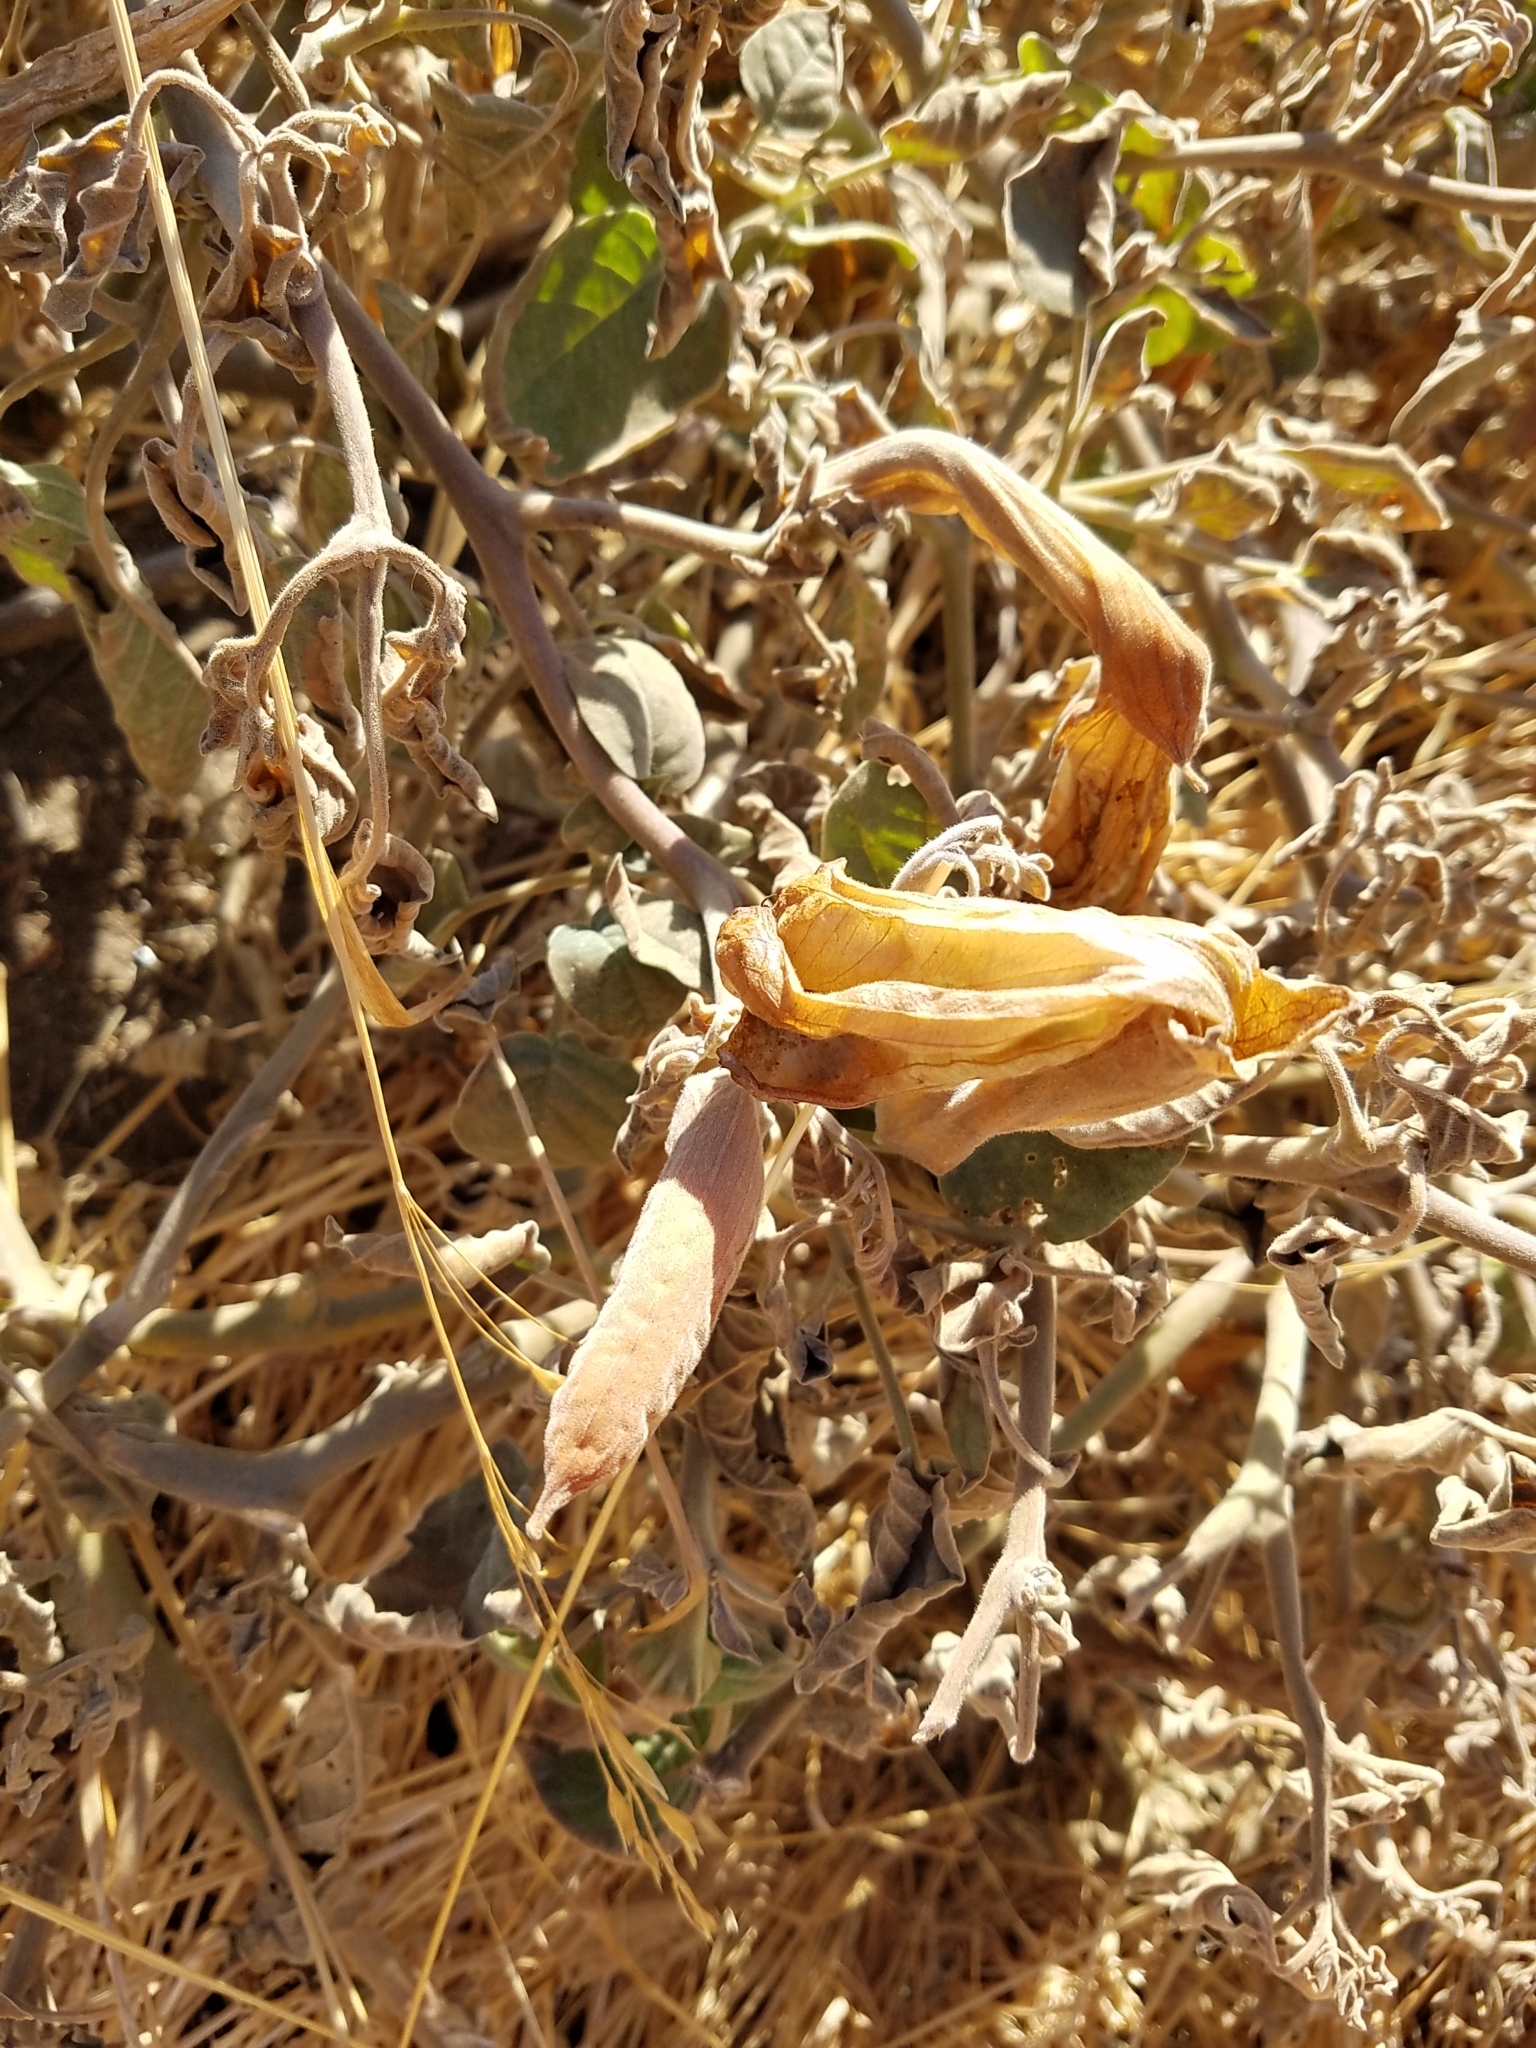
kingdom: Plantae
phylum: Tracheophyta
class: Magnoliopsida
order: Solanales
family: Solanaceae
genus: Datura
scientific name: Datura wrightii
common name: Sacred thorn-apple
